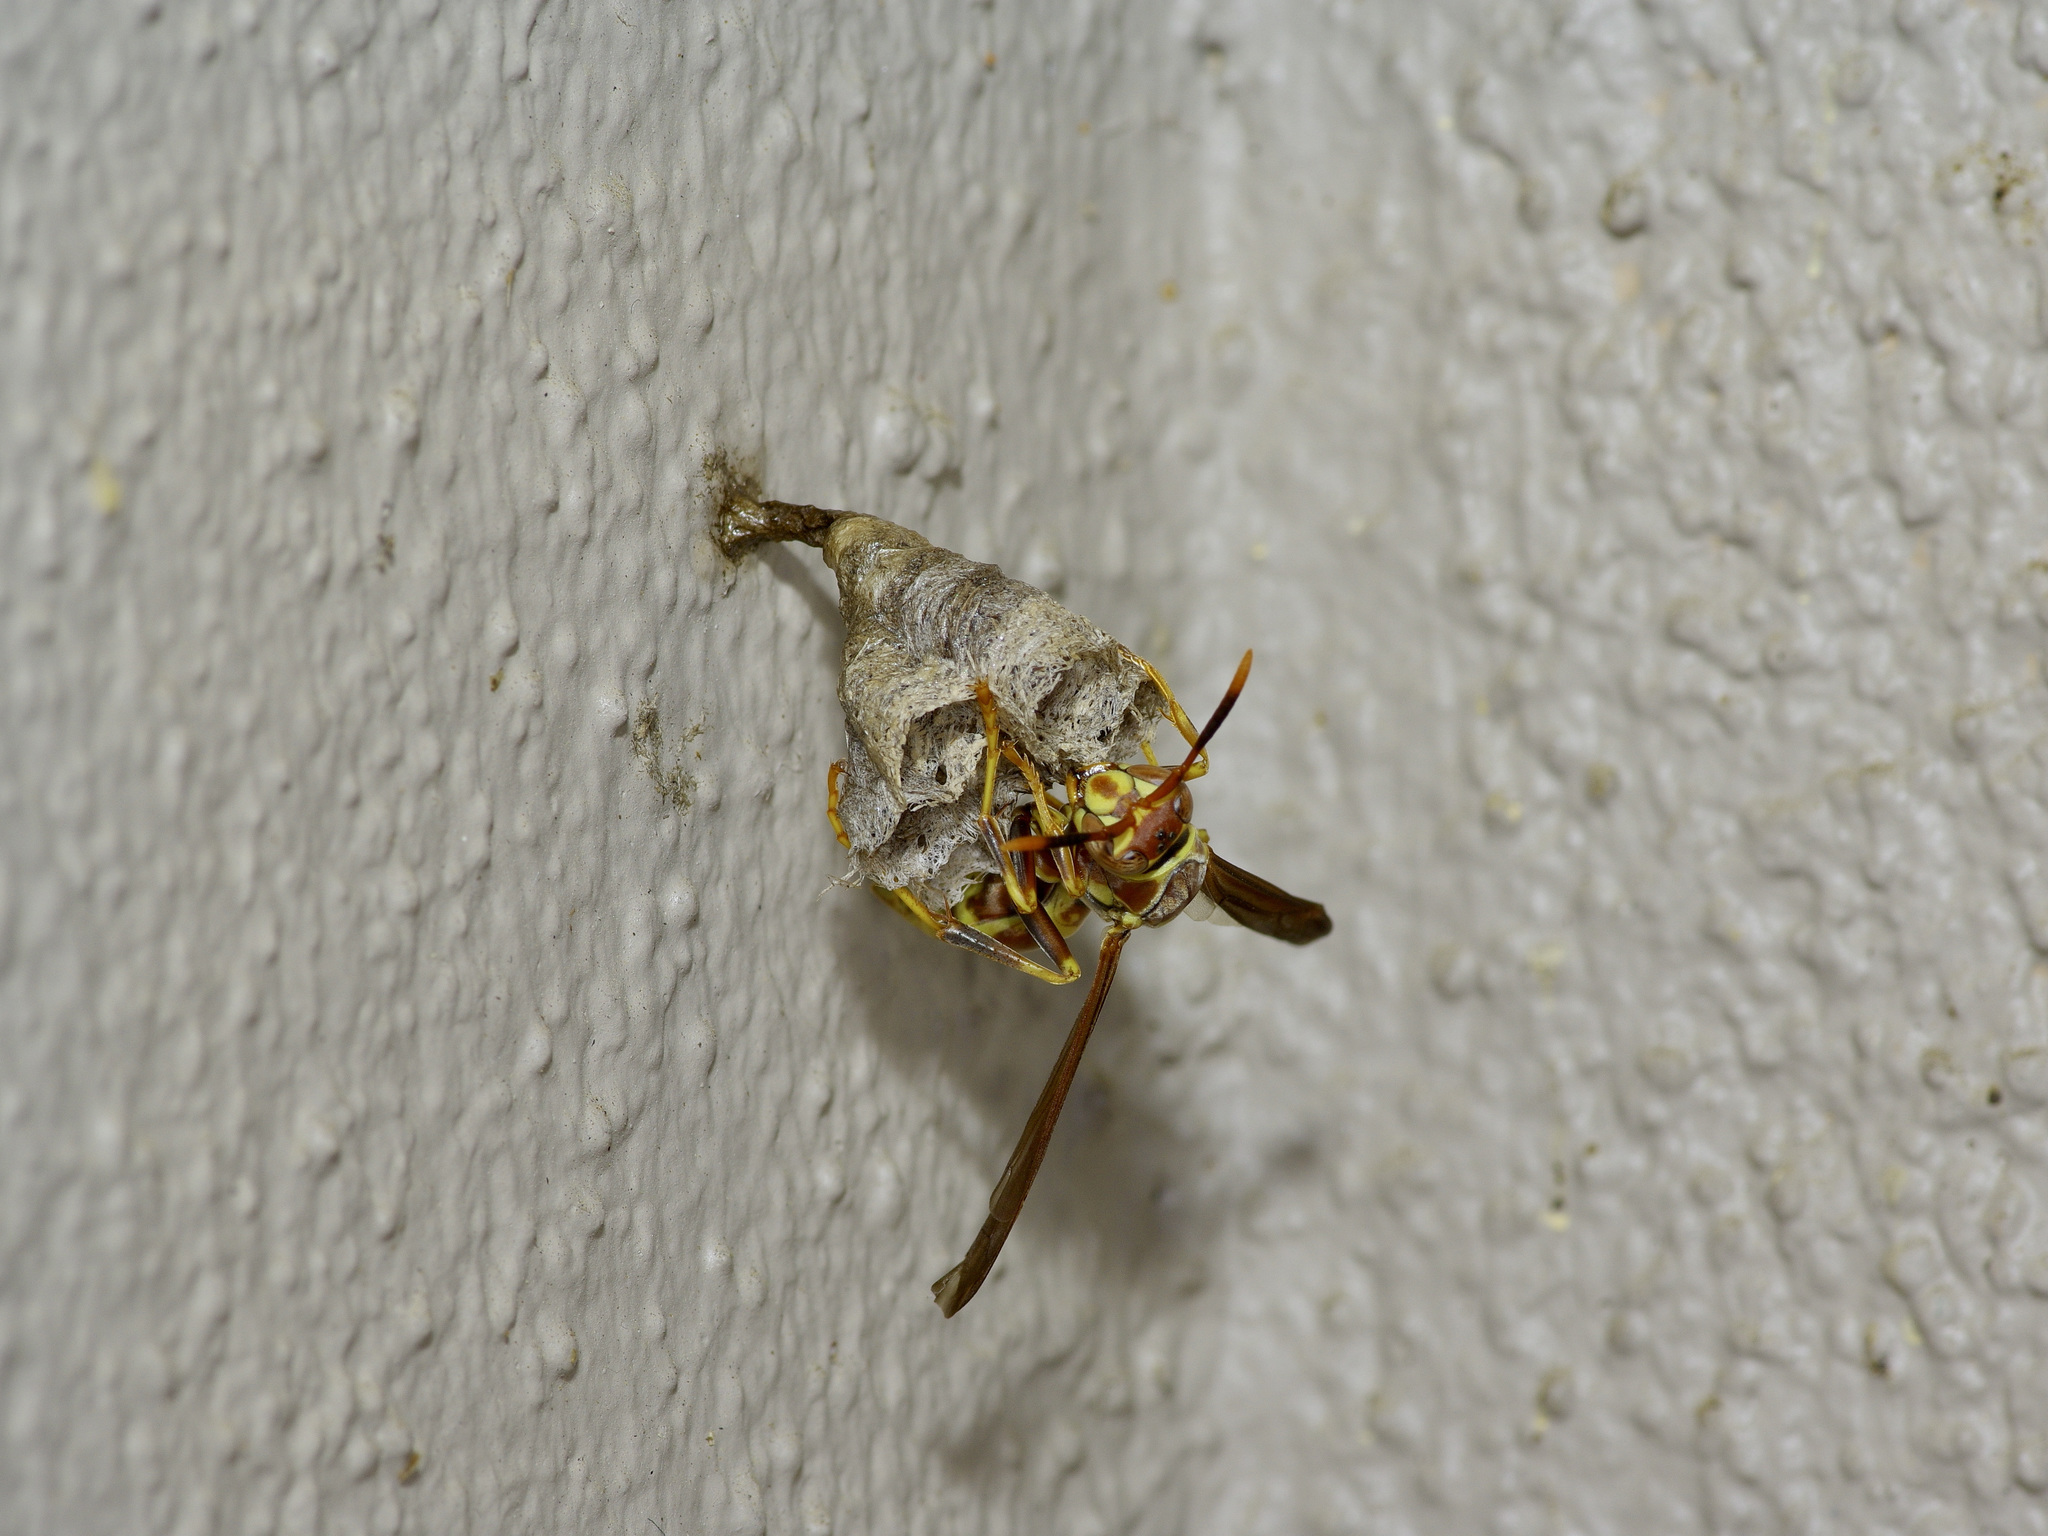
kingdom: Animalia
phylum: Arthropoda
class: Insecta
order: Hymenoptera
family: Eumenidae
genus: Polistes
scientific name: Polistes exclamans
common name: Paper wasp
